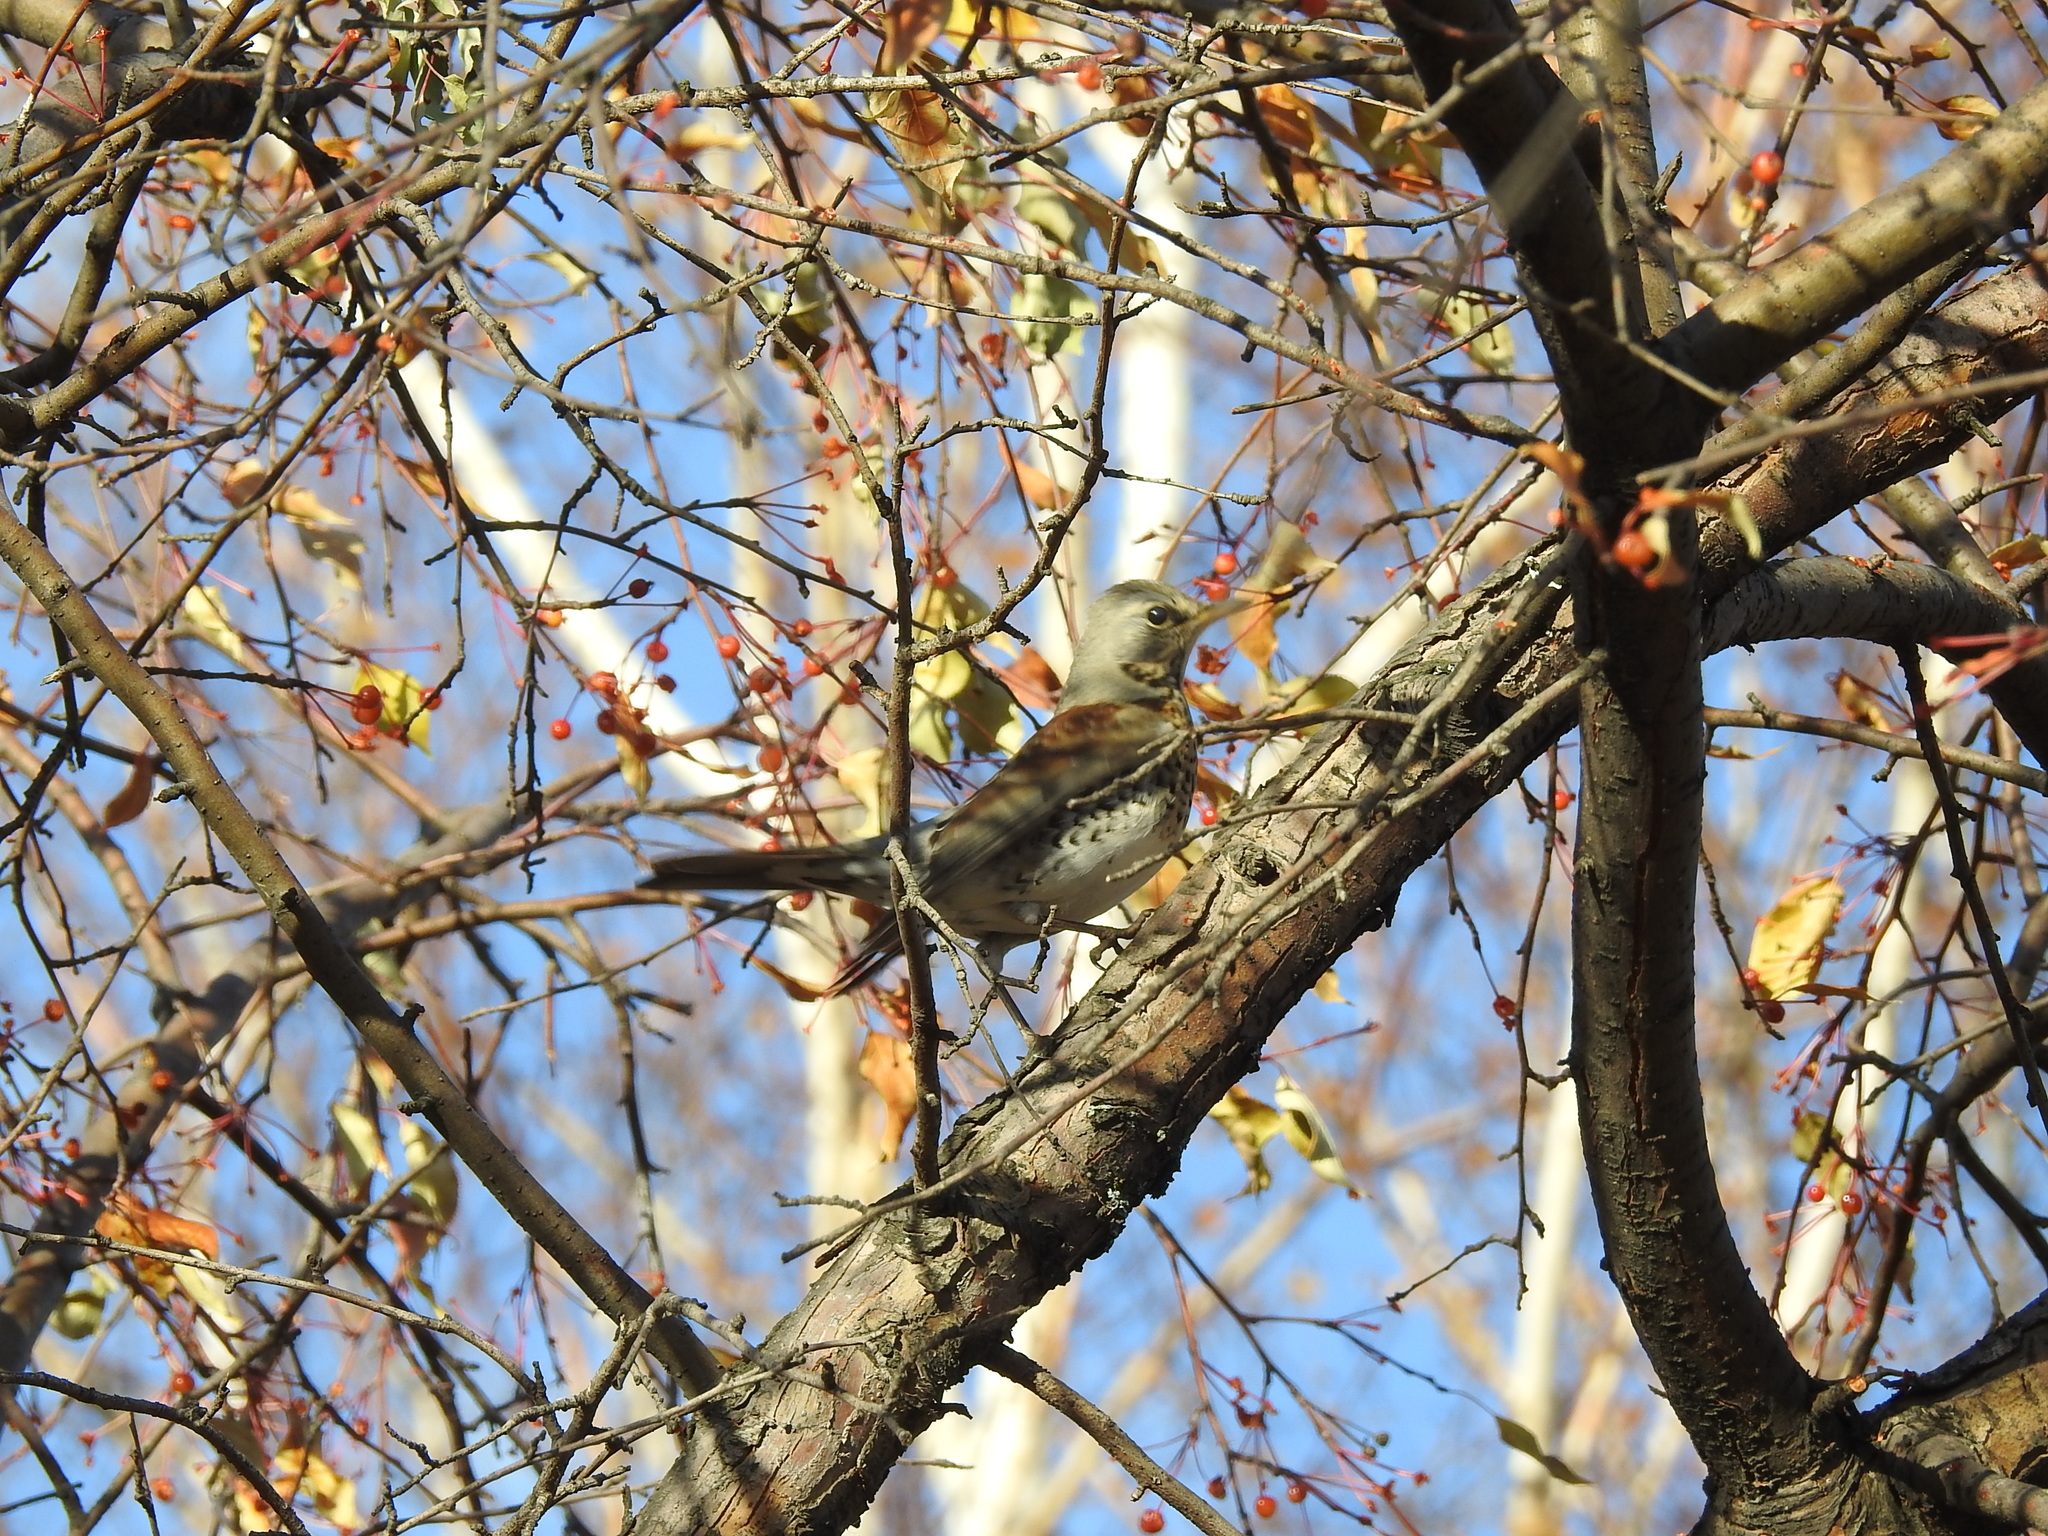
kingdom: Animalia
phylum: Chordata
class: Aves
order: Passeriformes
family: Turdidae
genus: Turdus
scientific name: Turdus pilaris
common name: Fieldfare
